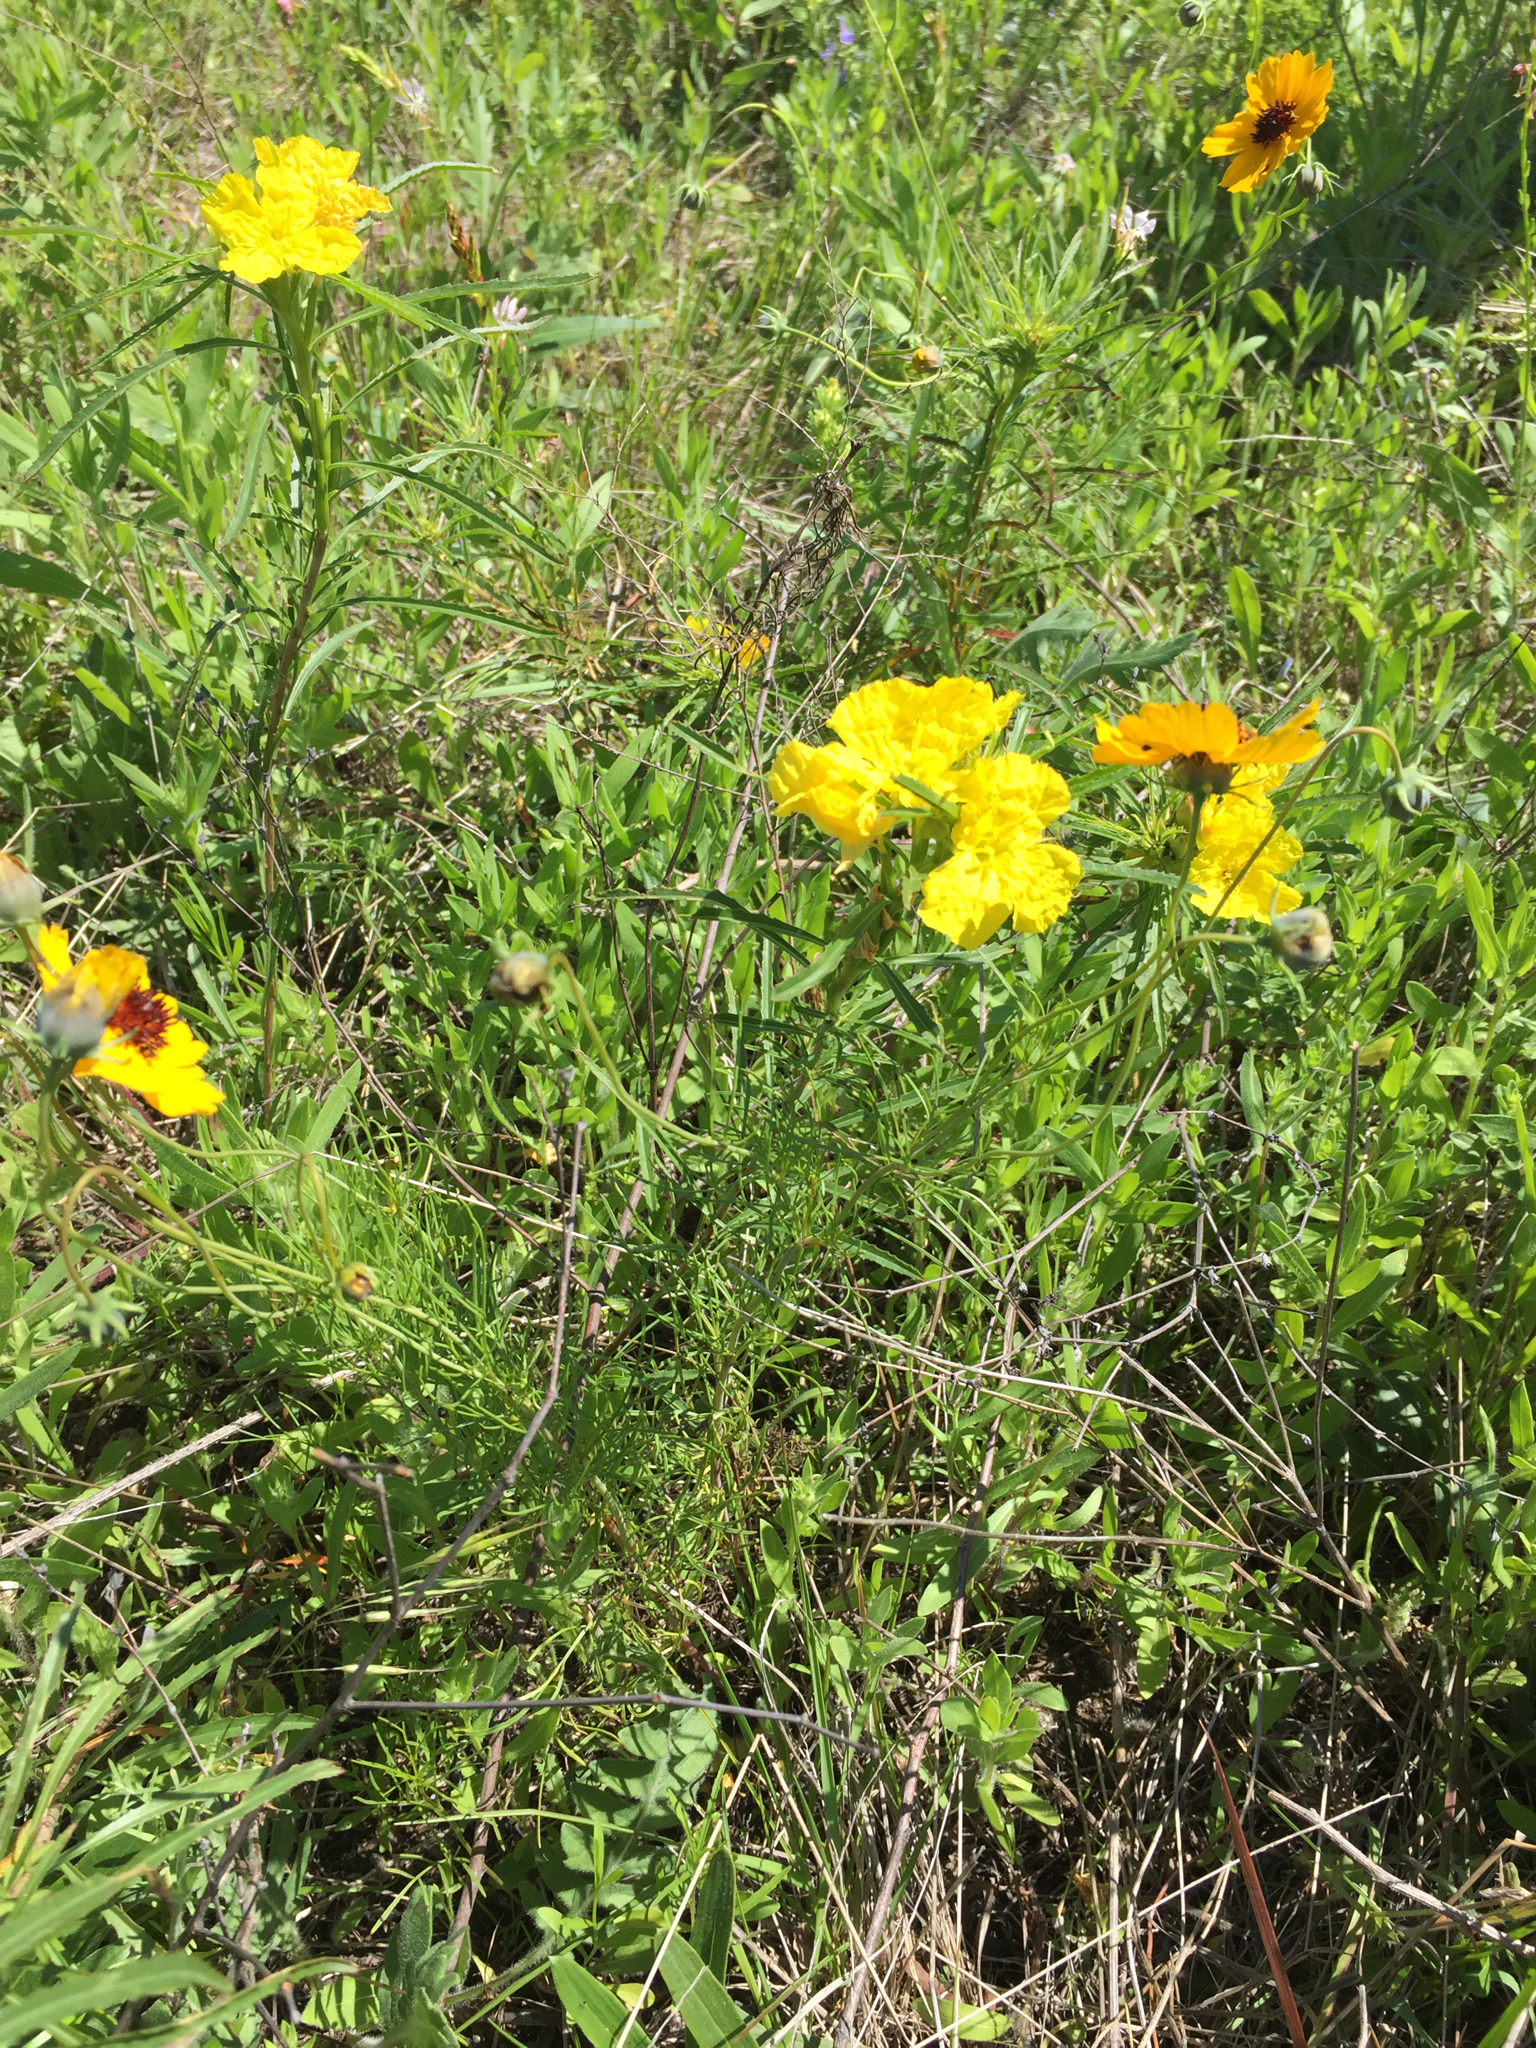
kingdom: Plantae
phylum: Tracheophyta
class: Magnoliopsida
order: Myrtales
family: Onagraceae
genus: Oenothera
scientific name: Oenothera
